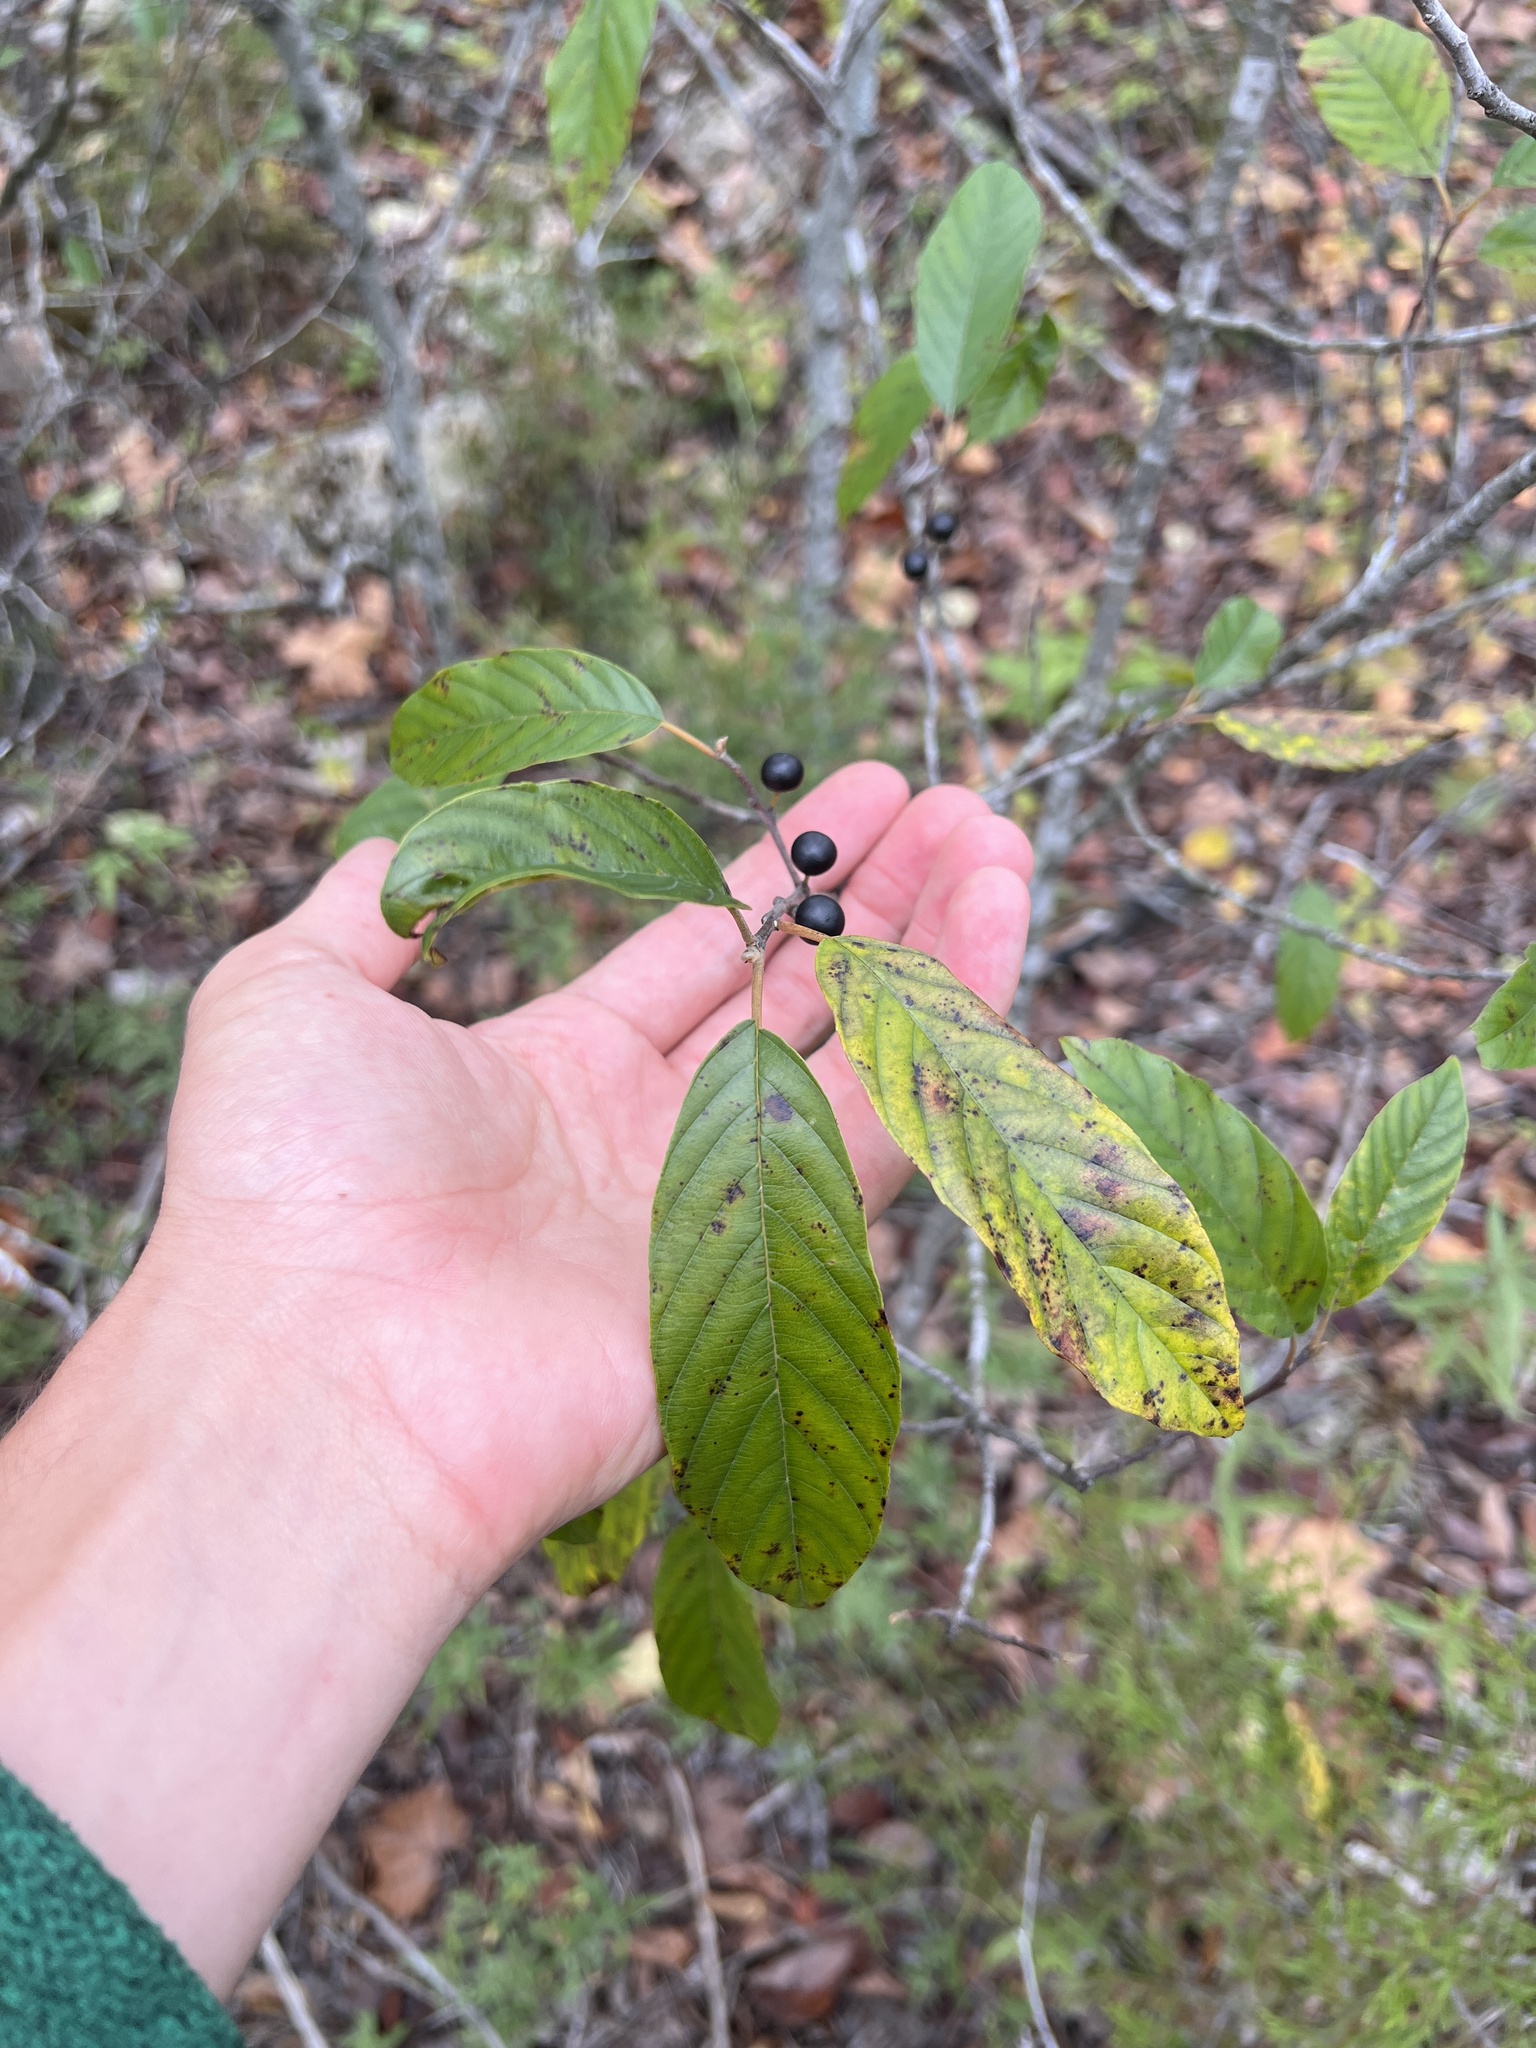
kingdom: Plantae
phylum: Tracheophyta
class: Magnoliopsida
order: Rosales
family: Rhamnaceae
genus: Frangula
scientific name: Frangula caroliniana
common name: Carolina buckthorn
